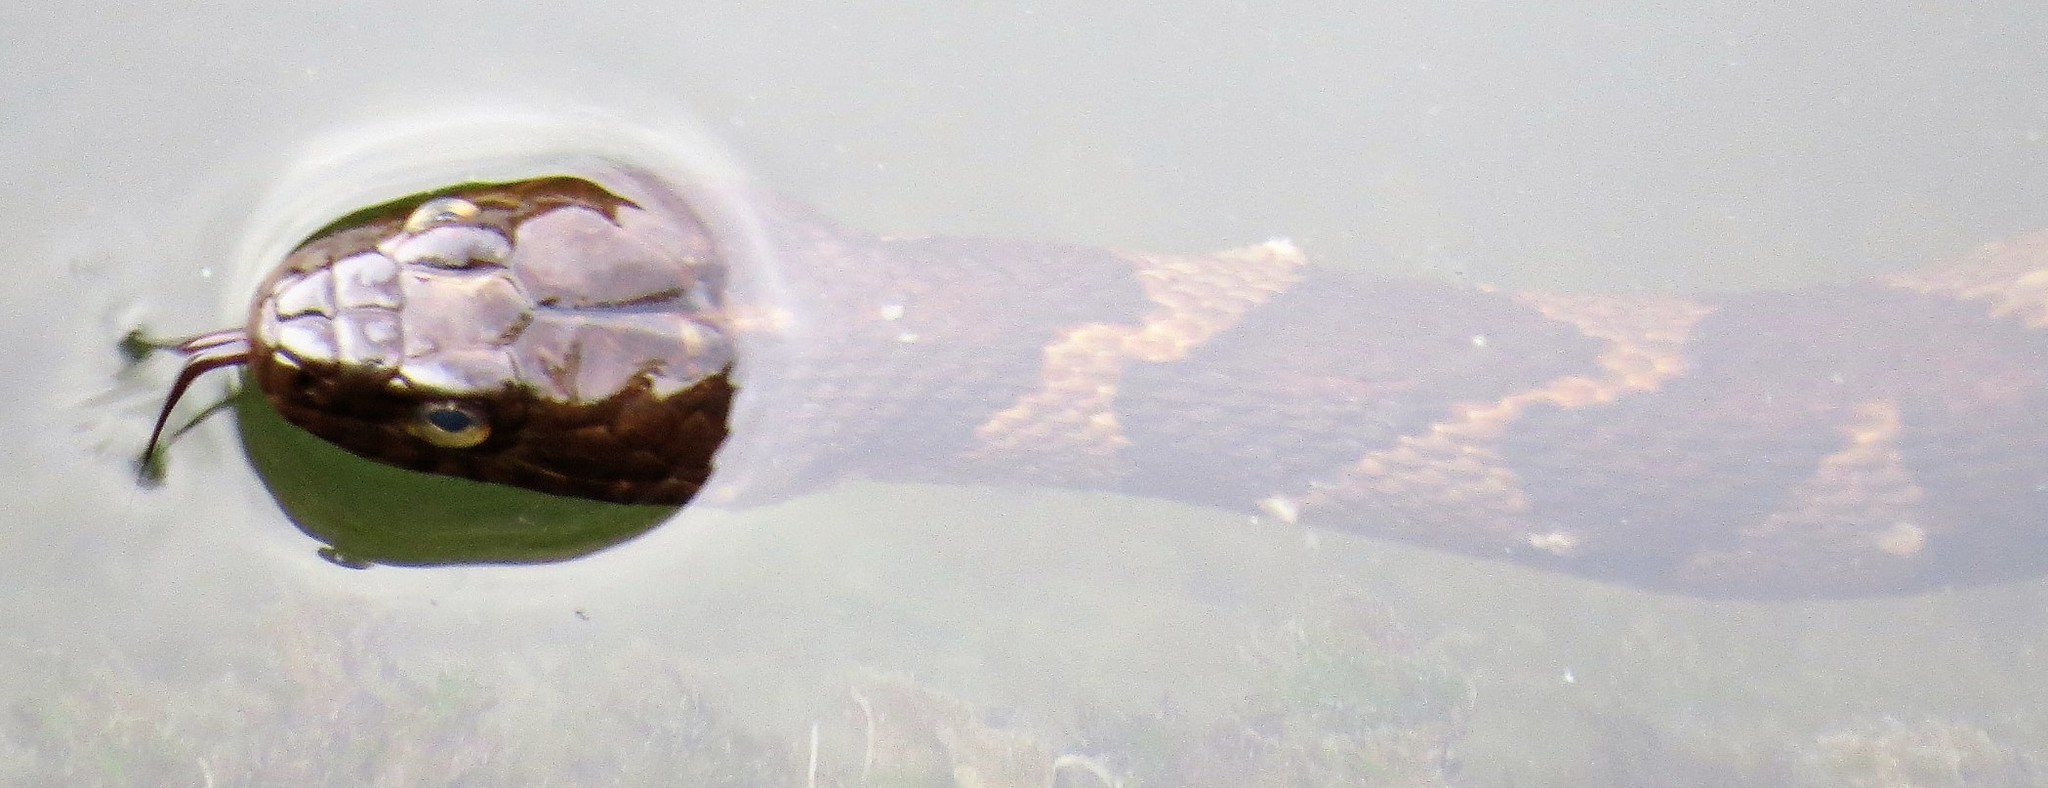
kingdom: Animalia
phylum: Chordata
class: Squamata
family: Colubridae
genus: Nerodia
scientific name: Nerodia sipedon
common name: Northern water snake
